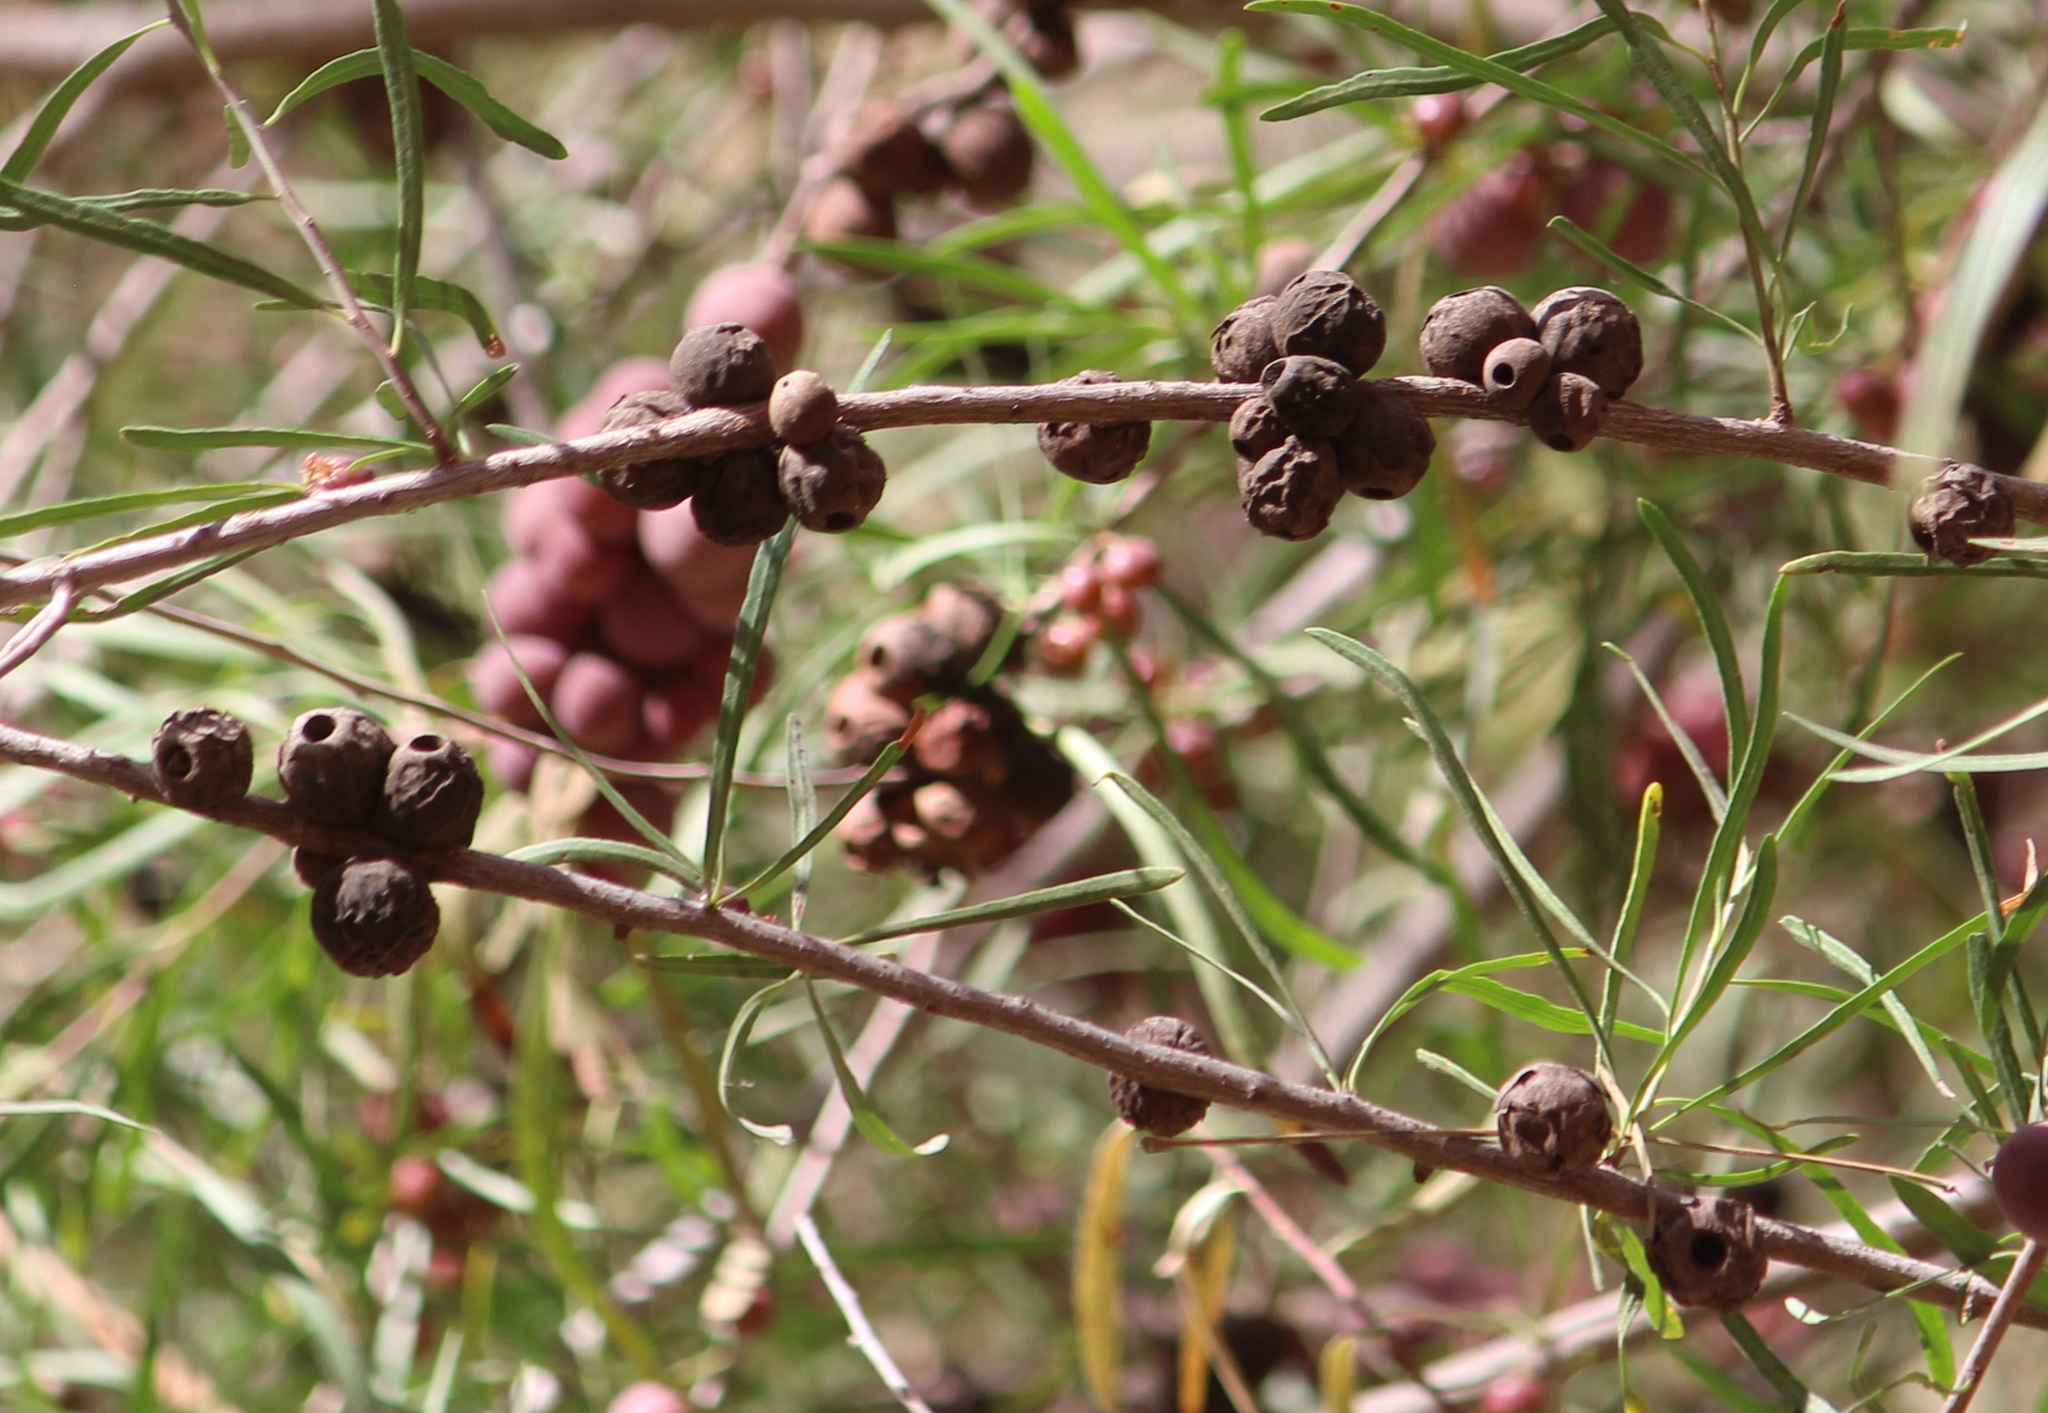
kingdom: Plantae
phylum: Tracheophyta
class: Magnoliopsida
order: Sapindales
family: Anacardiaceae
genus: Schinus
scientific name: Schinus talampaya
